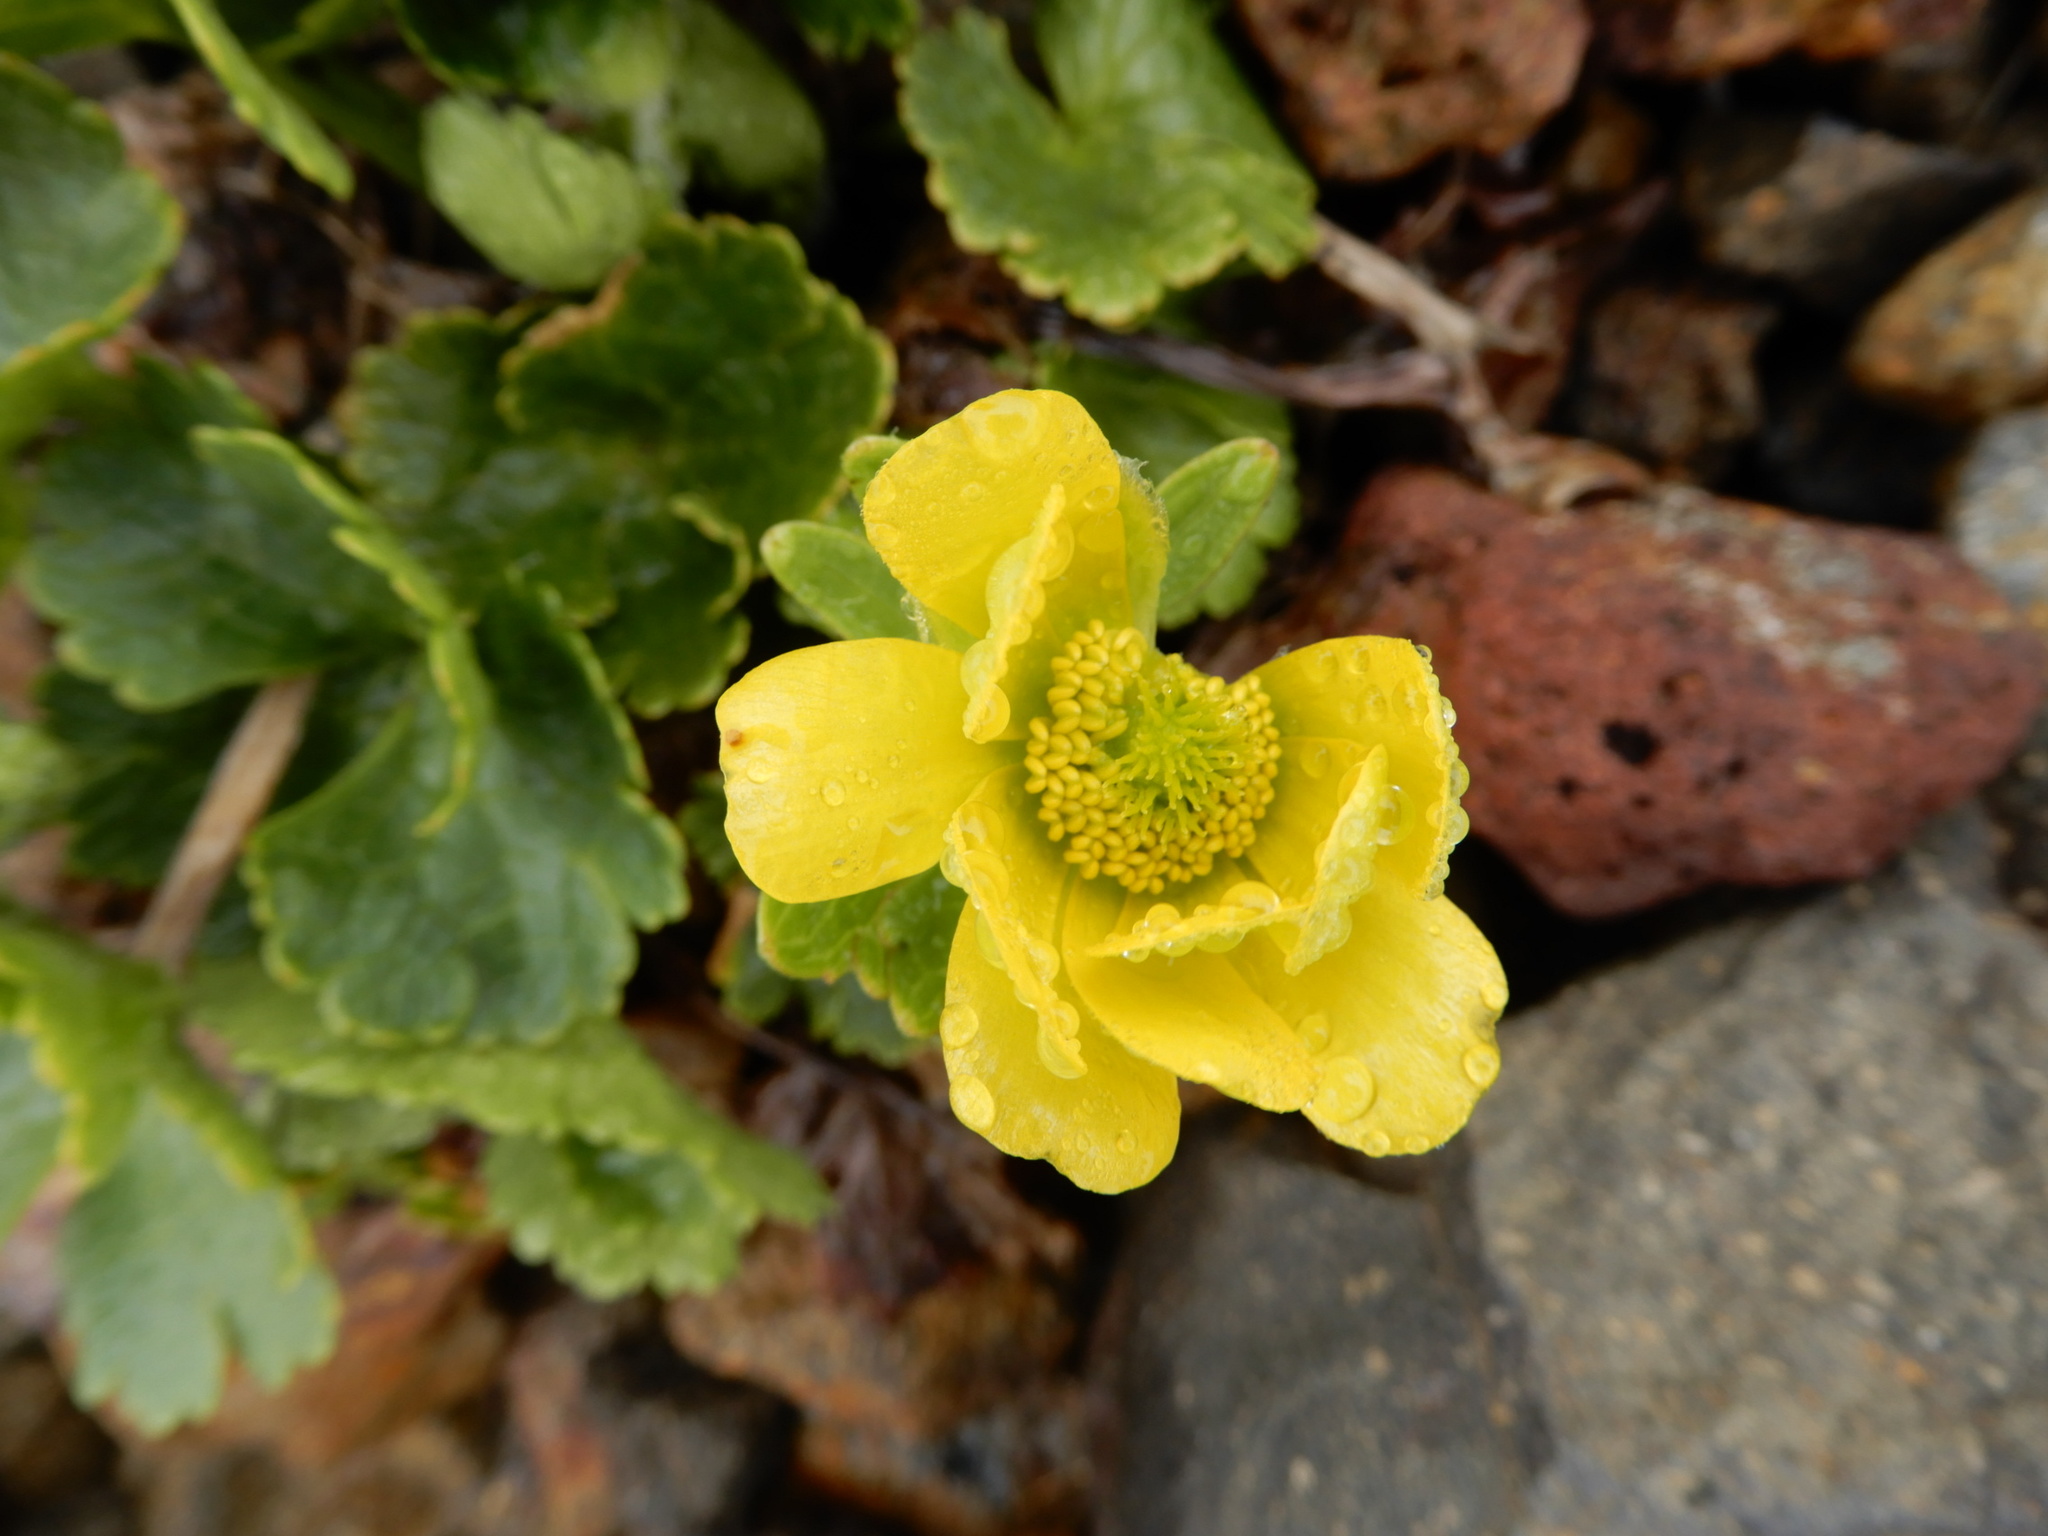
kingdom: Plantae
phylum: Tracheophyta
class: Magnoliopsida
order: Ranunculales
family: Ranunculaceae
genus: Ranunculus
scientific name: Ranunculus insignis
